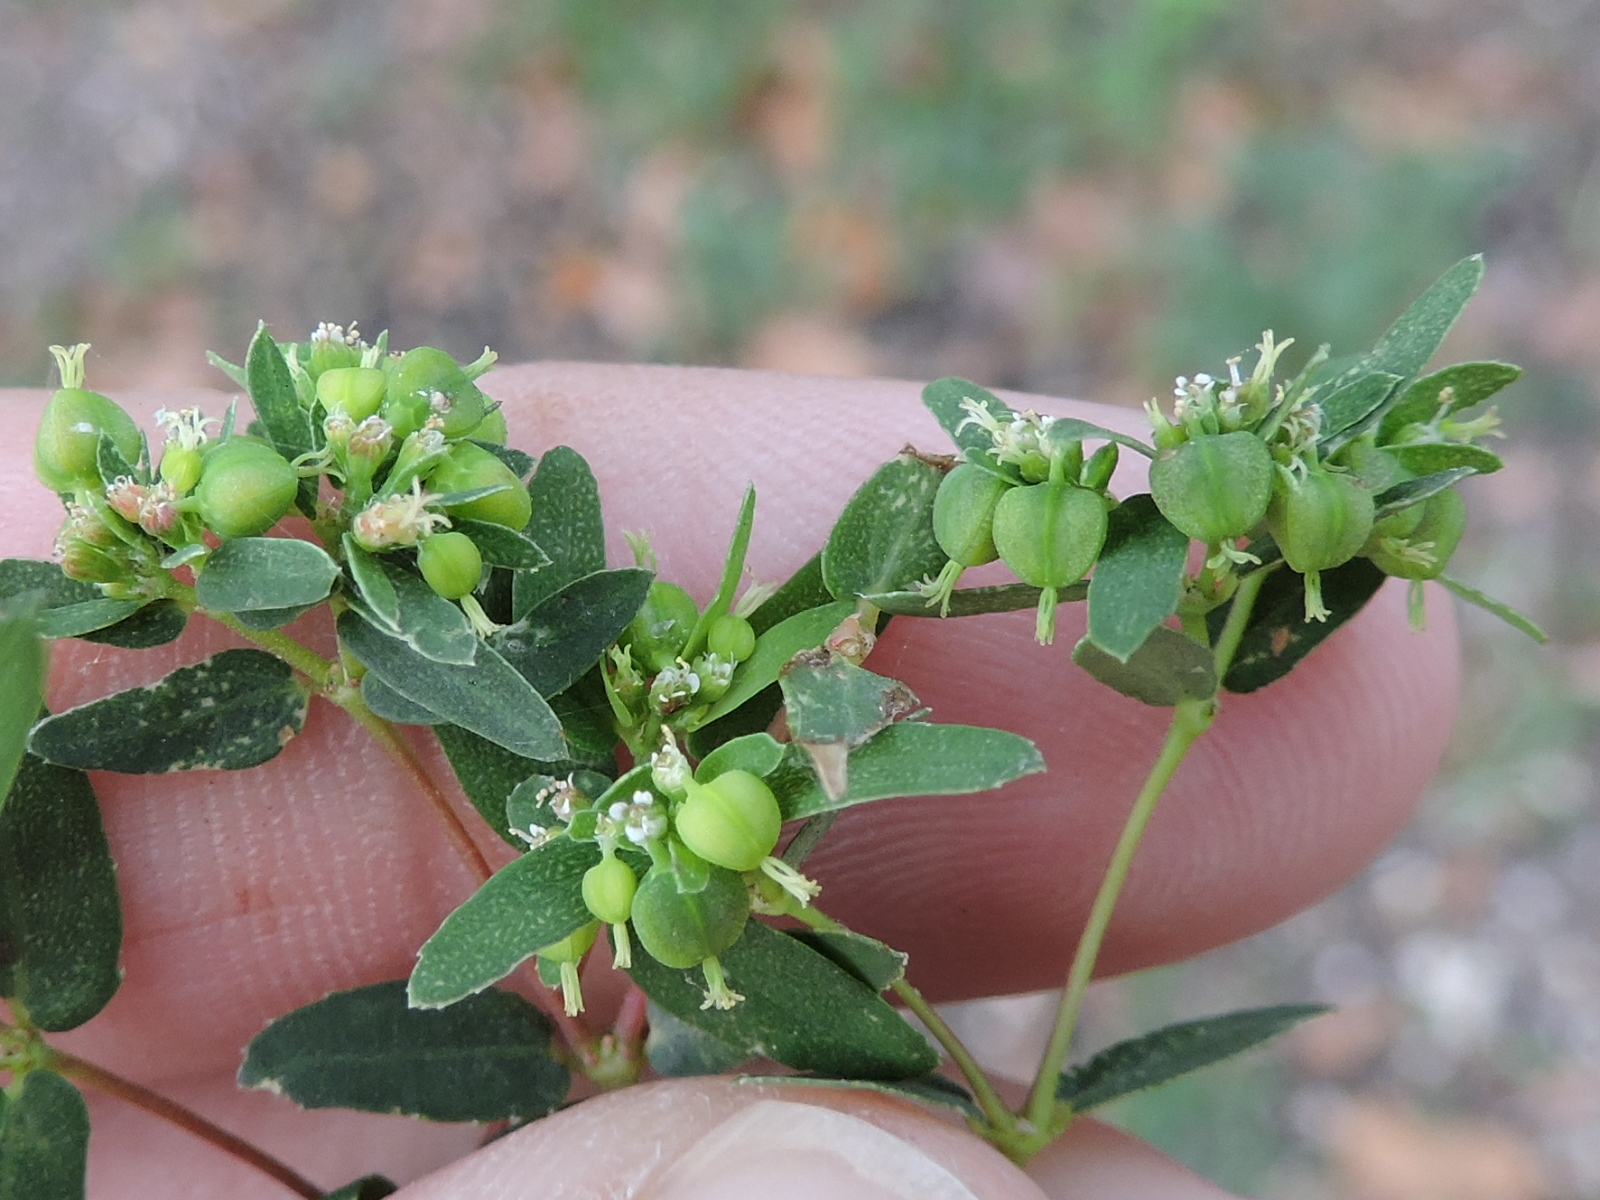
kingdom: Plantae
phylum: Tracheophyta
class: Magnoliopsida
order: Malpighiales
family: Euphorbiaceae
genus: Euphorbia
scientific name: Euphorbia nutans
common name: Eyebane
